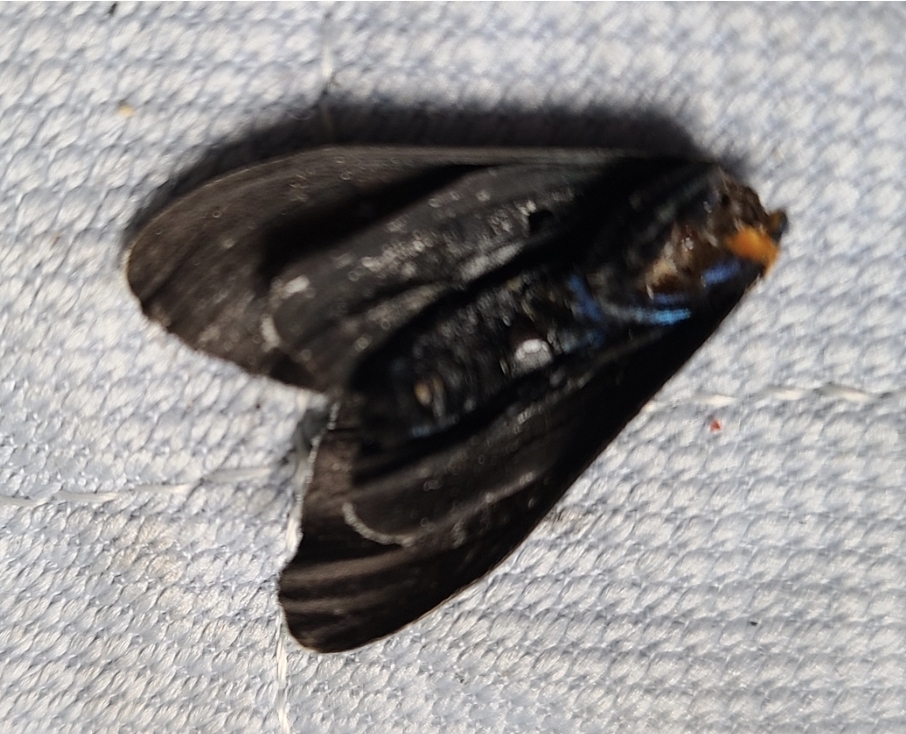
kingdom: Animalia
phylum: Arthropoda
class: Insecta
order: Lepidoptera
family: Erebidae
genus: Ctenucha
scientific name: Ctenucha virginica
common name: Virginia ctenucha moth
